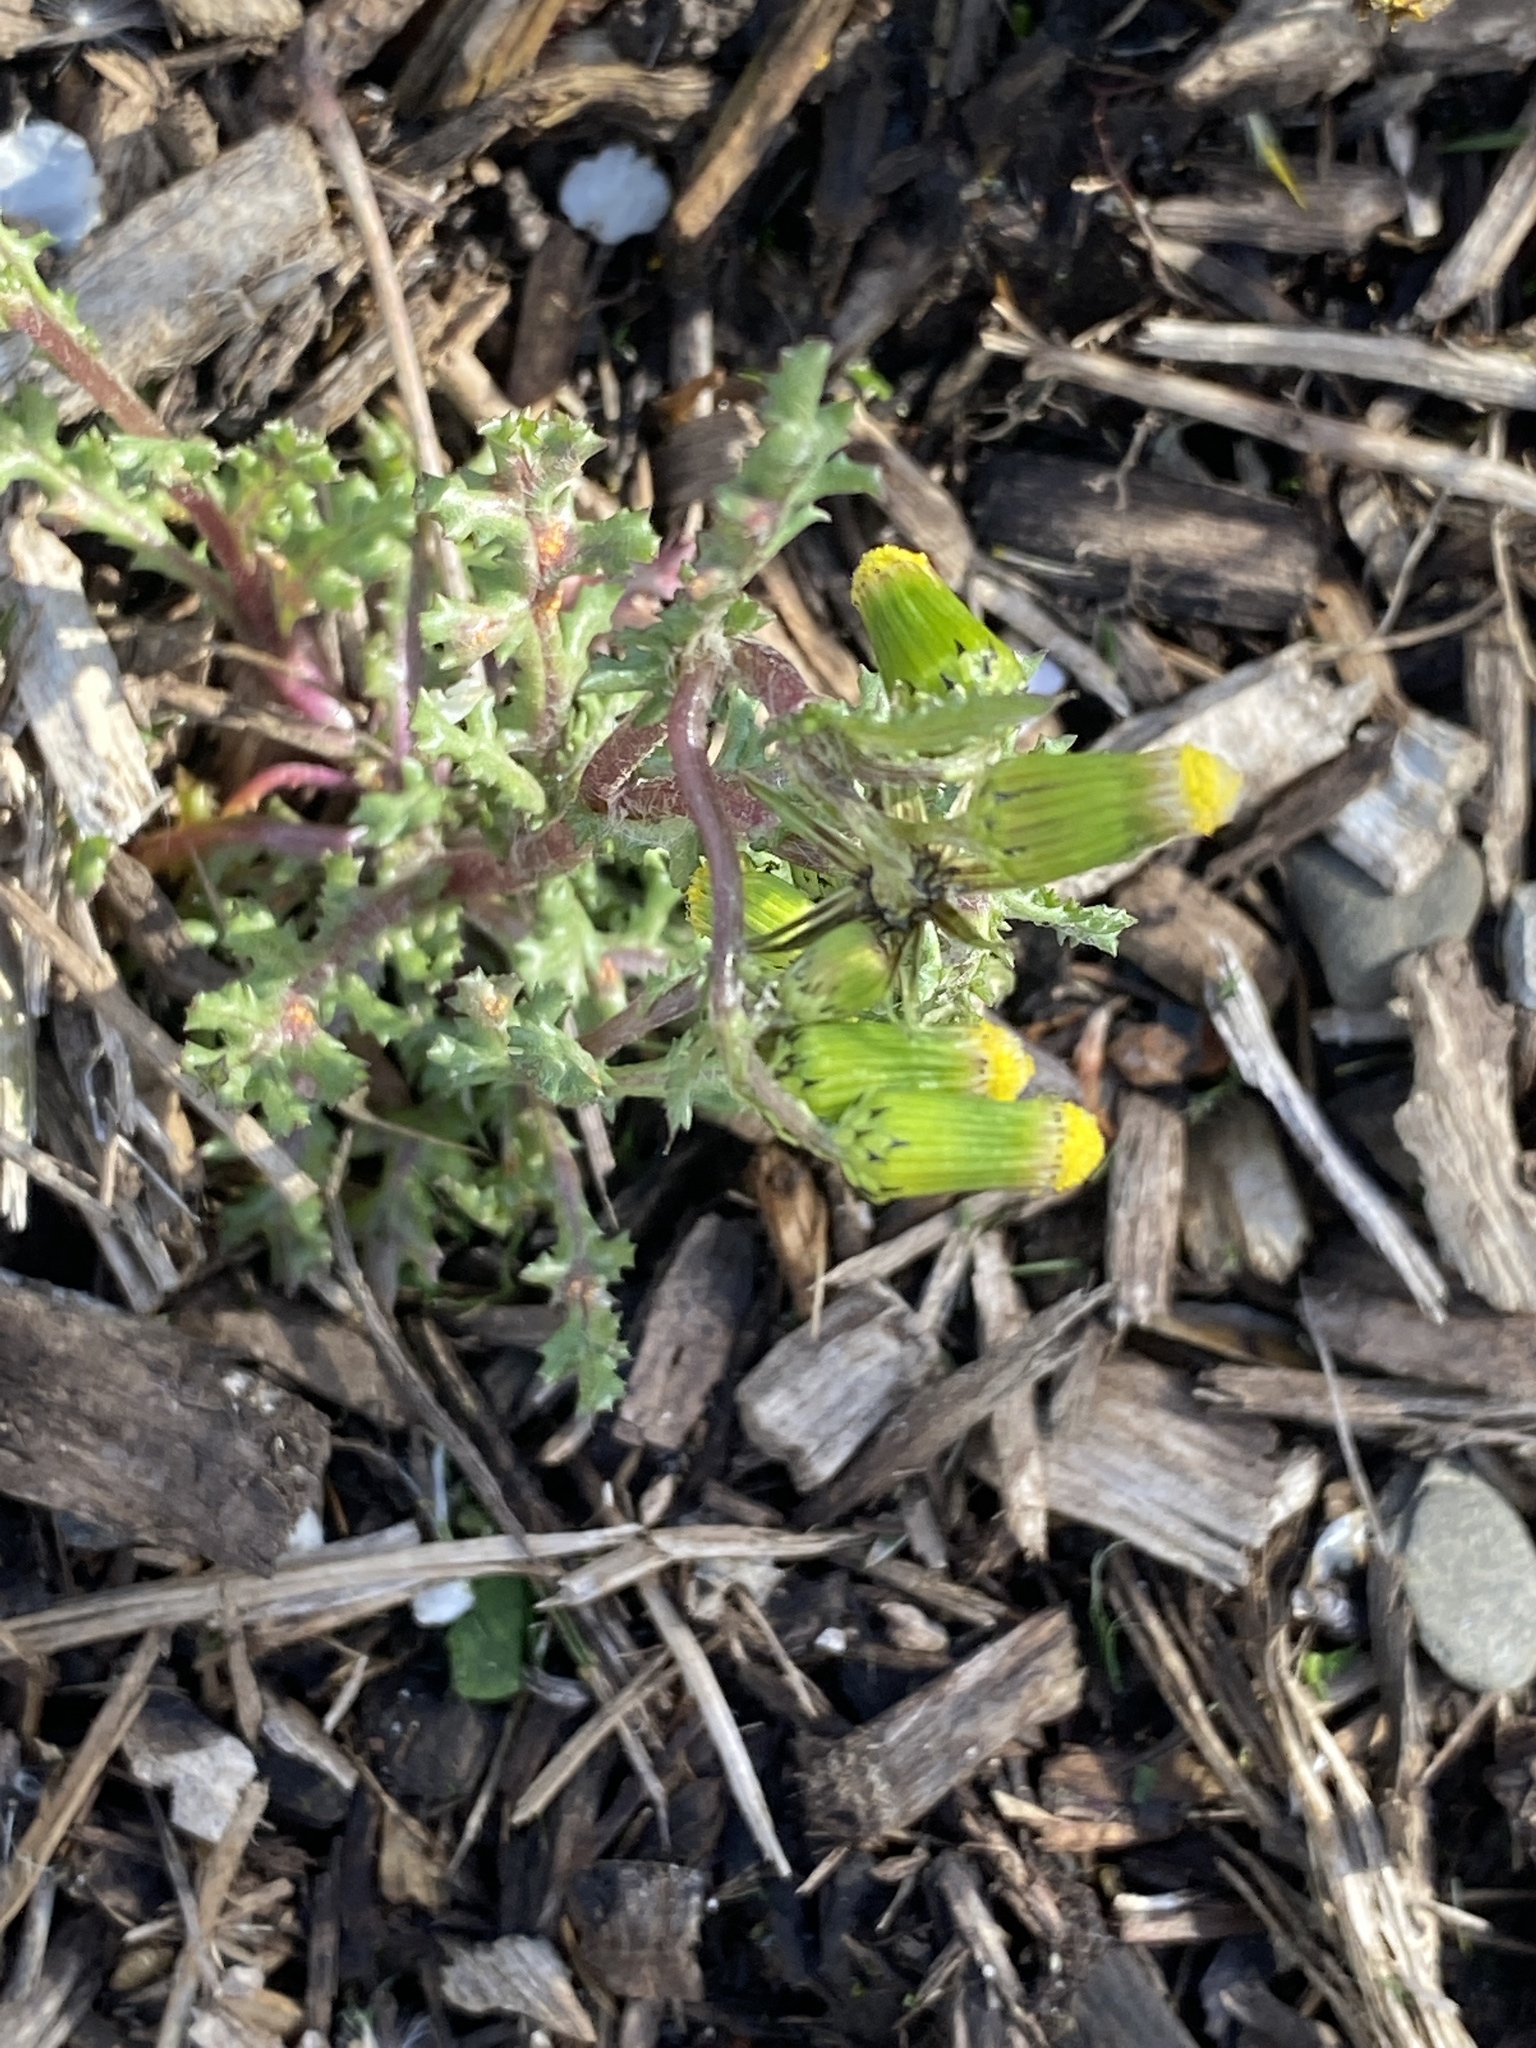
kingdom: Plantae
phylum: Tracheophyta
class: Magnoliopsida
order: Asterales
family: Asteraceae
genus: Senecio
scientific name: Senecio vulgaris
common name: Old-man-in-the-spring
